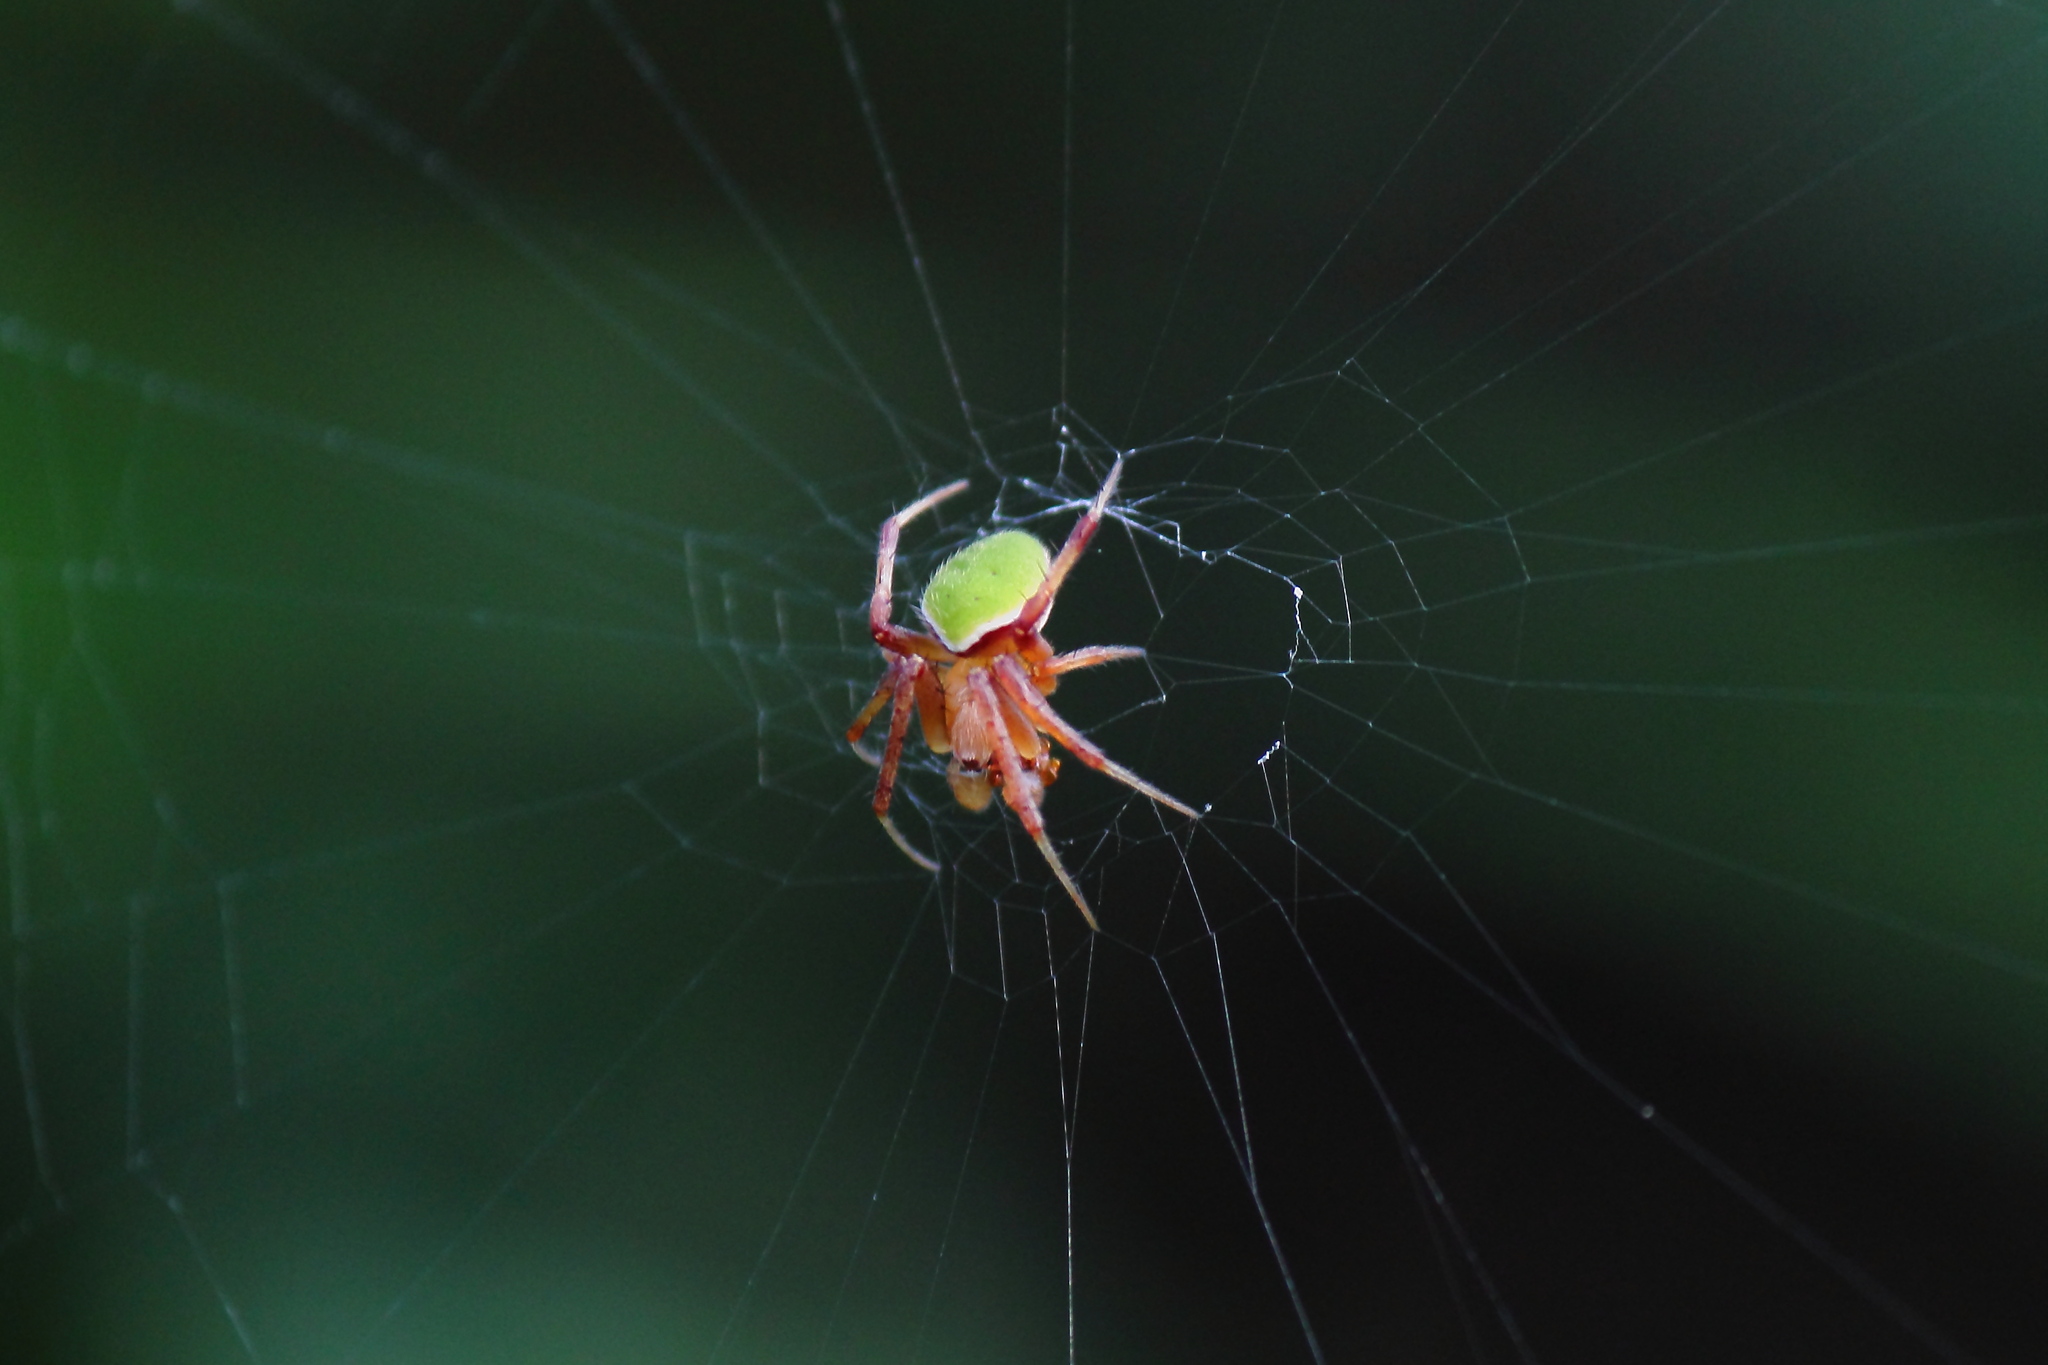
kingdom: Animalia
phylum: Arthropoda
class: Arachnida
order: Araneae
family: Araneidae
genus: Neoscona
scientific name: Neoscona mellotteei
